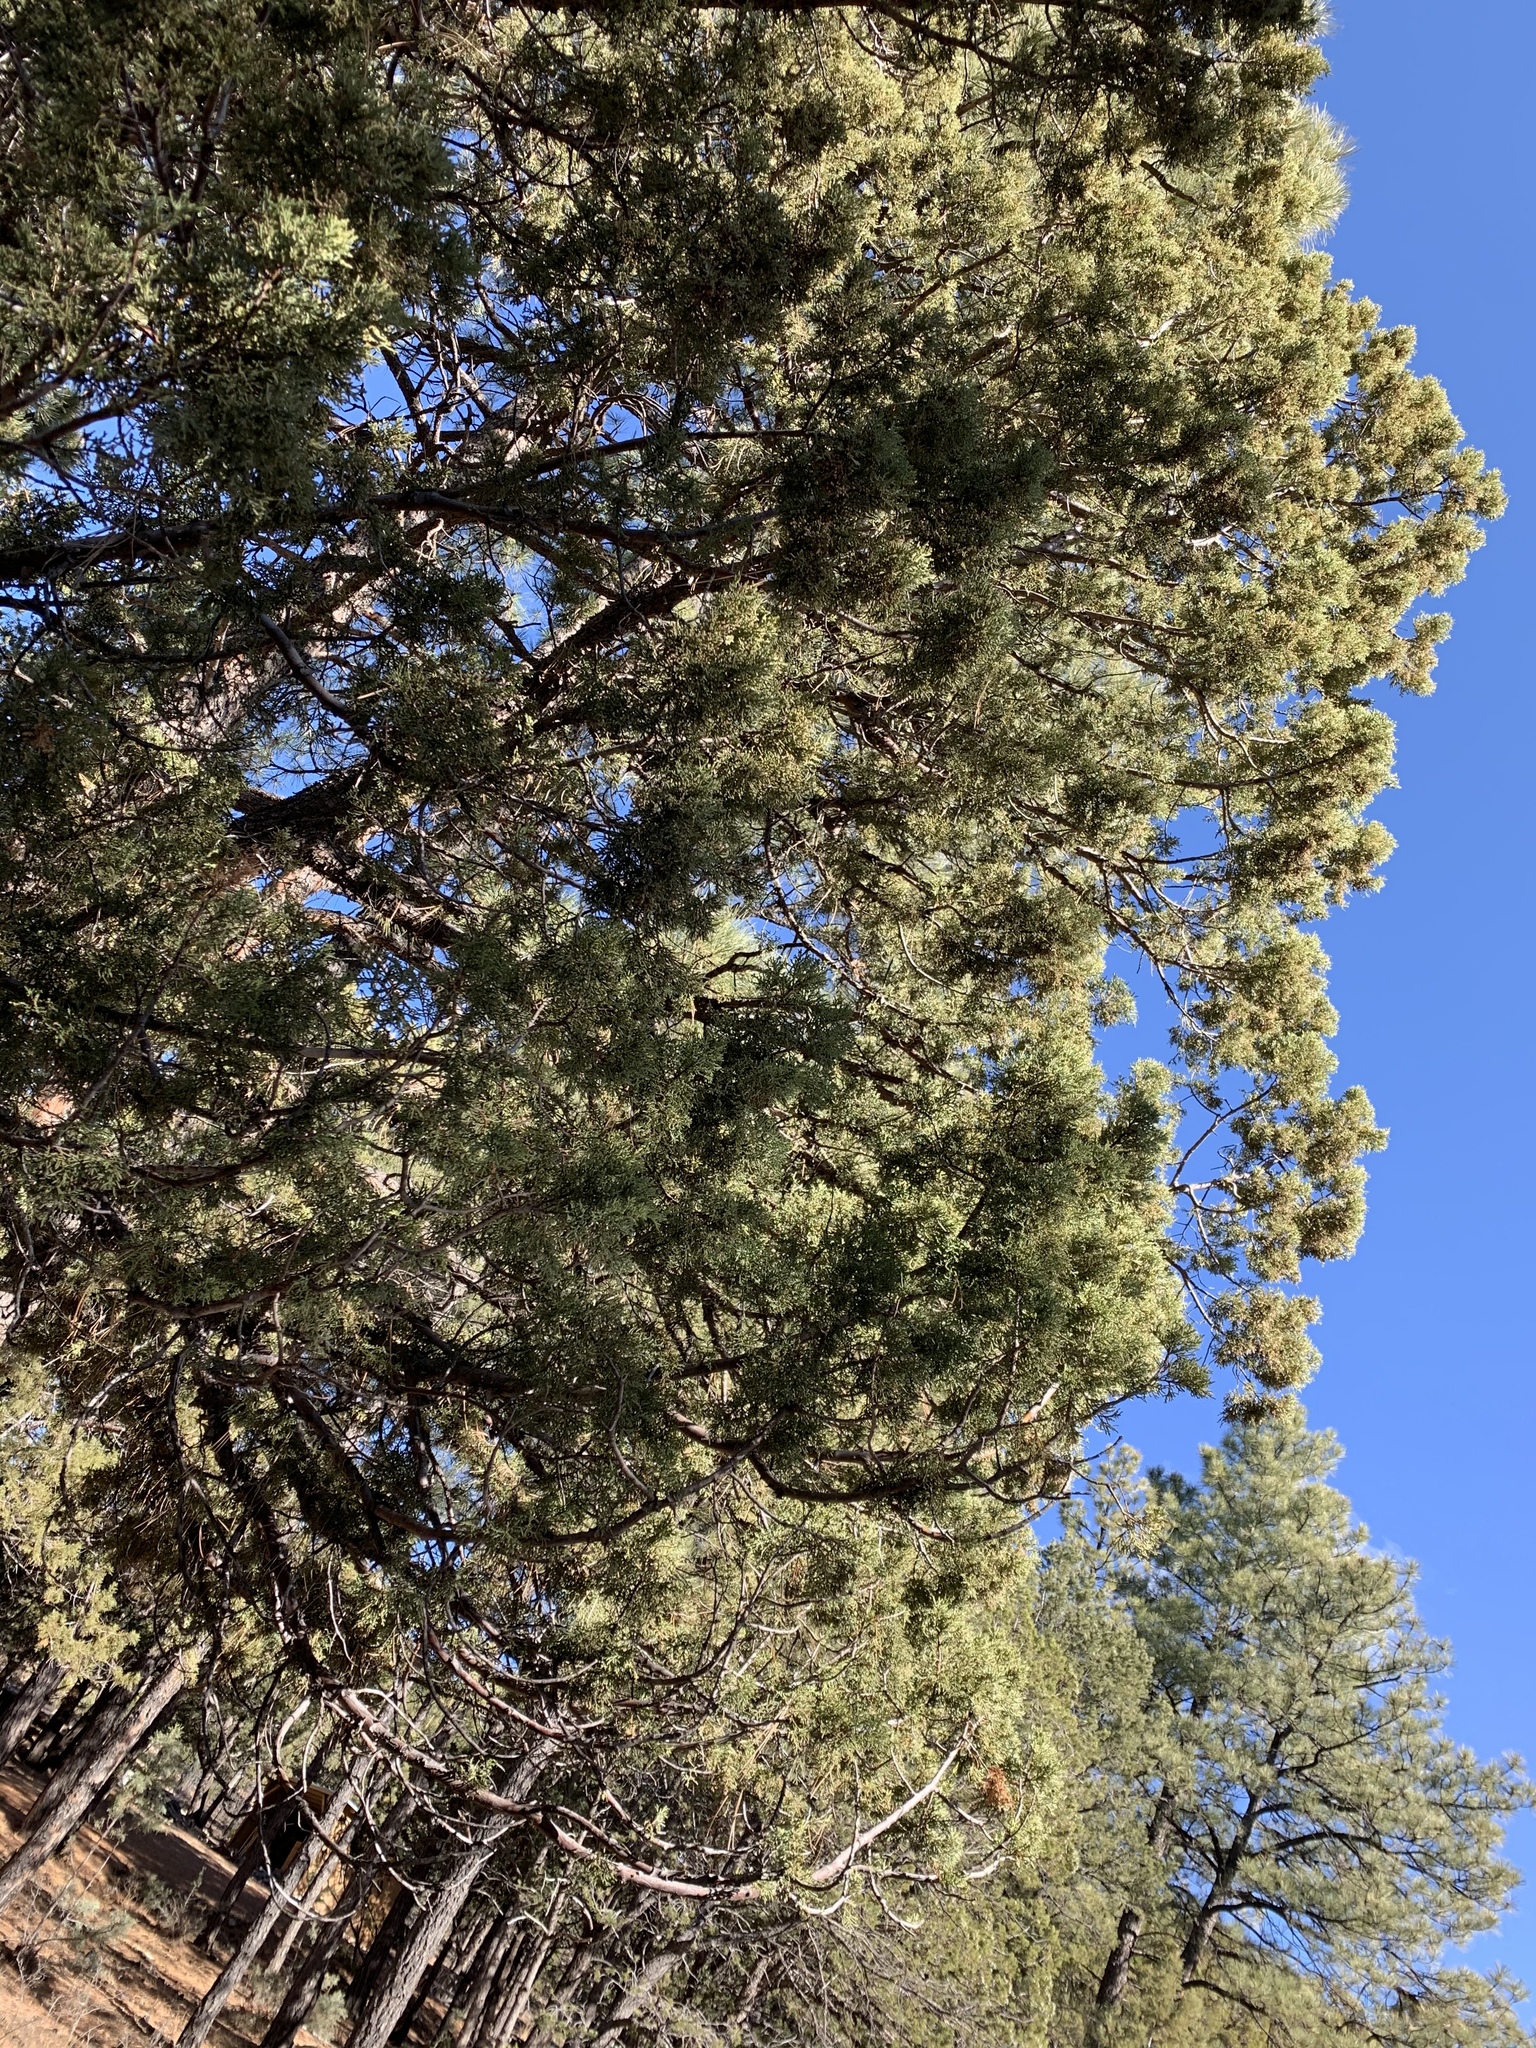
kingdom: Plantae
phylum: Tracheophyta
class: Pinopsida
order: Pinales
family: Cupressaceae
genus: Juniperus
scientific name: Juniperus deppeana
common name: Alligator juniper
